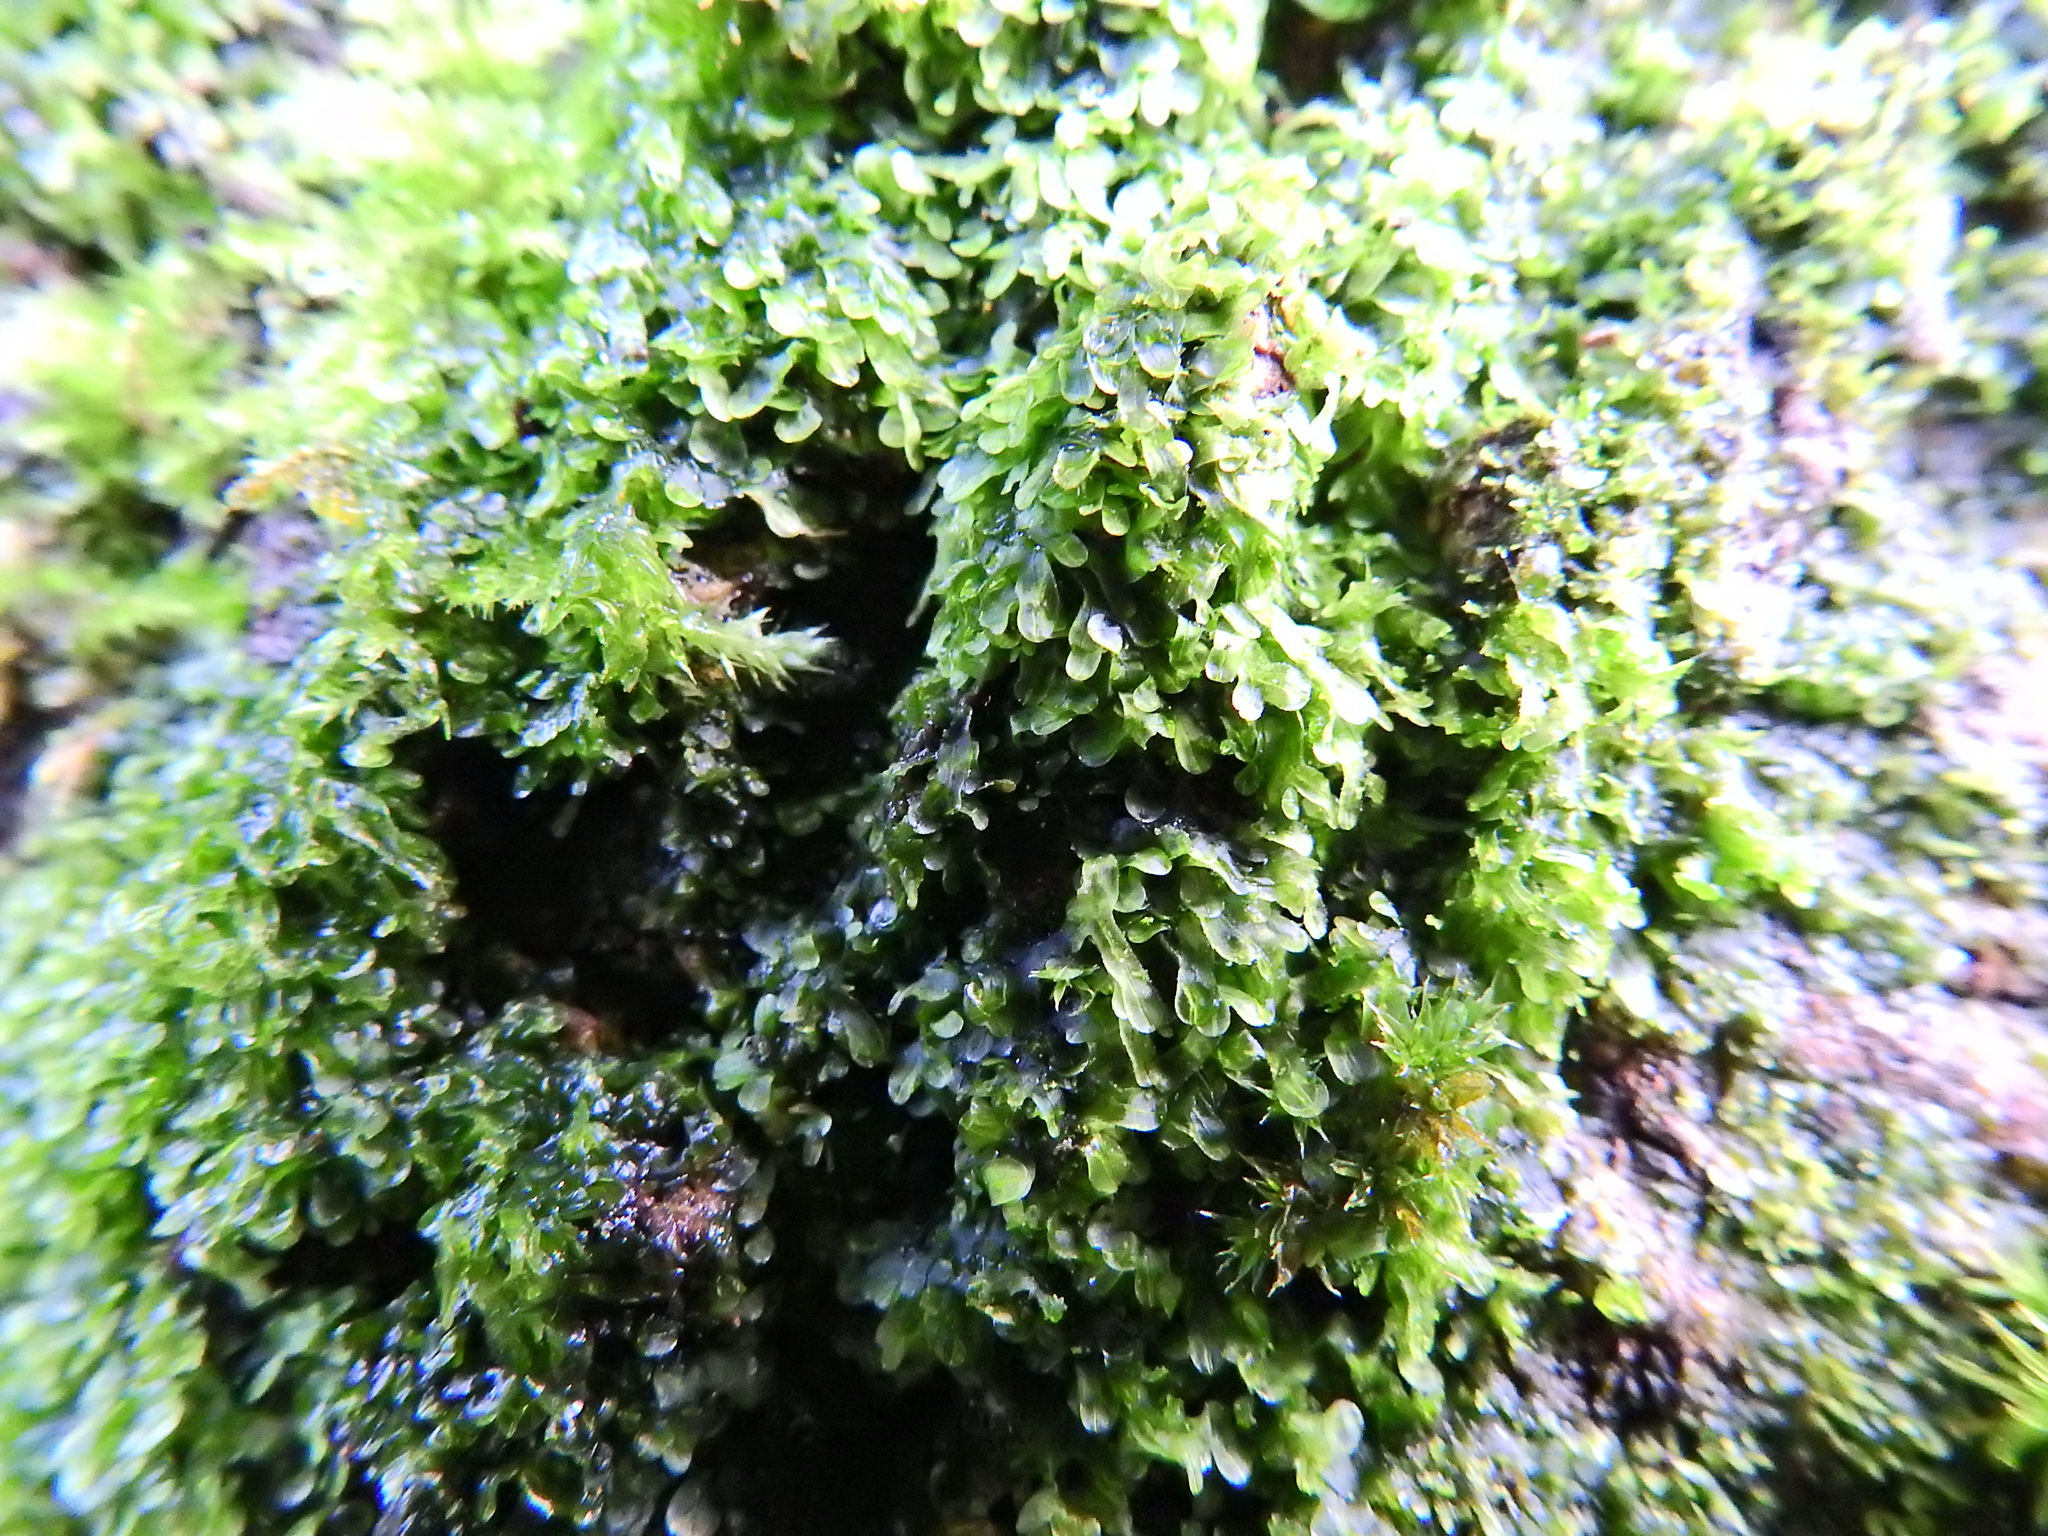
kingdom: Plantae
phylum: Marchantiophyta
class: Jungermanniopsida
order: Metzgeriales
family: Metzgeriaceae
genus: Metzgeria
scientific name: Metzgeria furcata
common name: Forked veilwort
